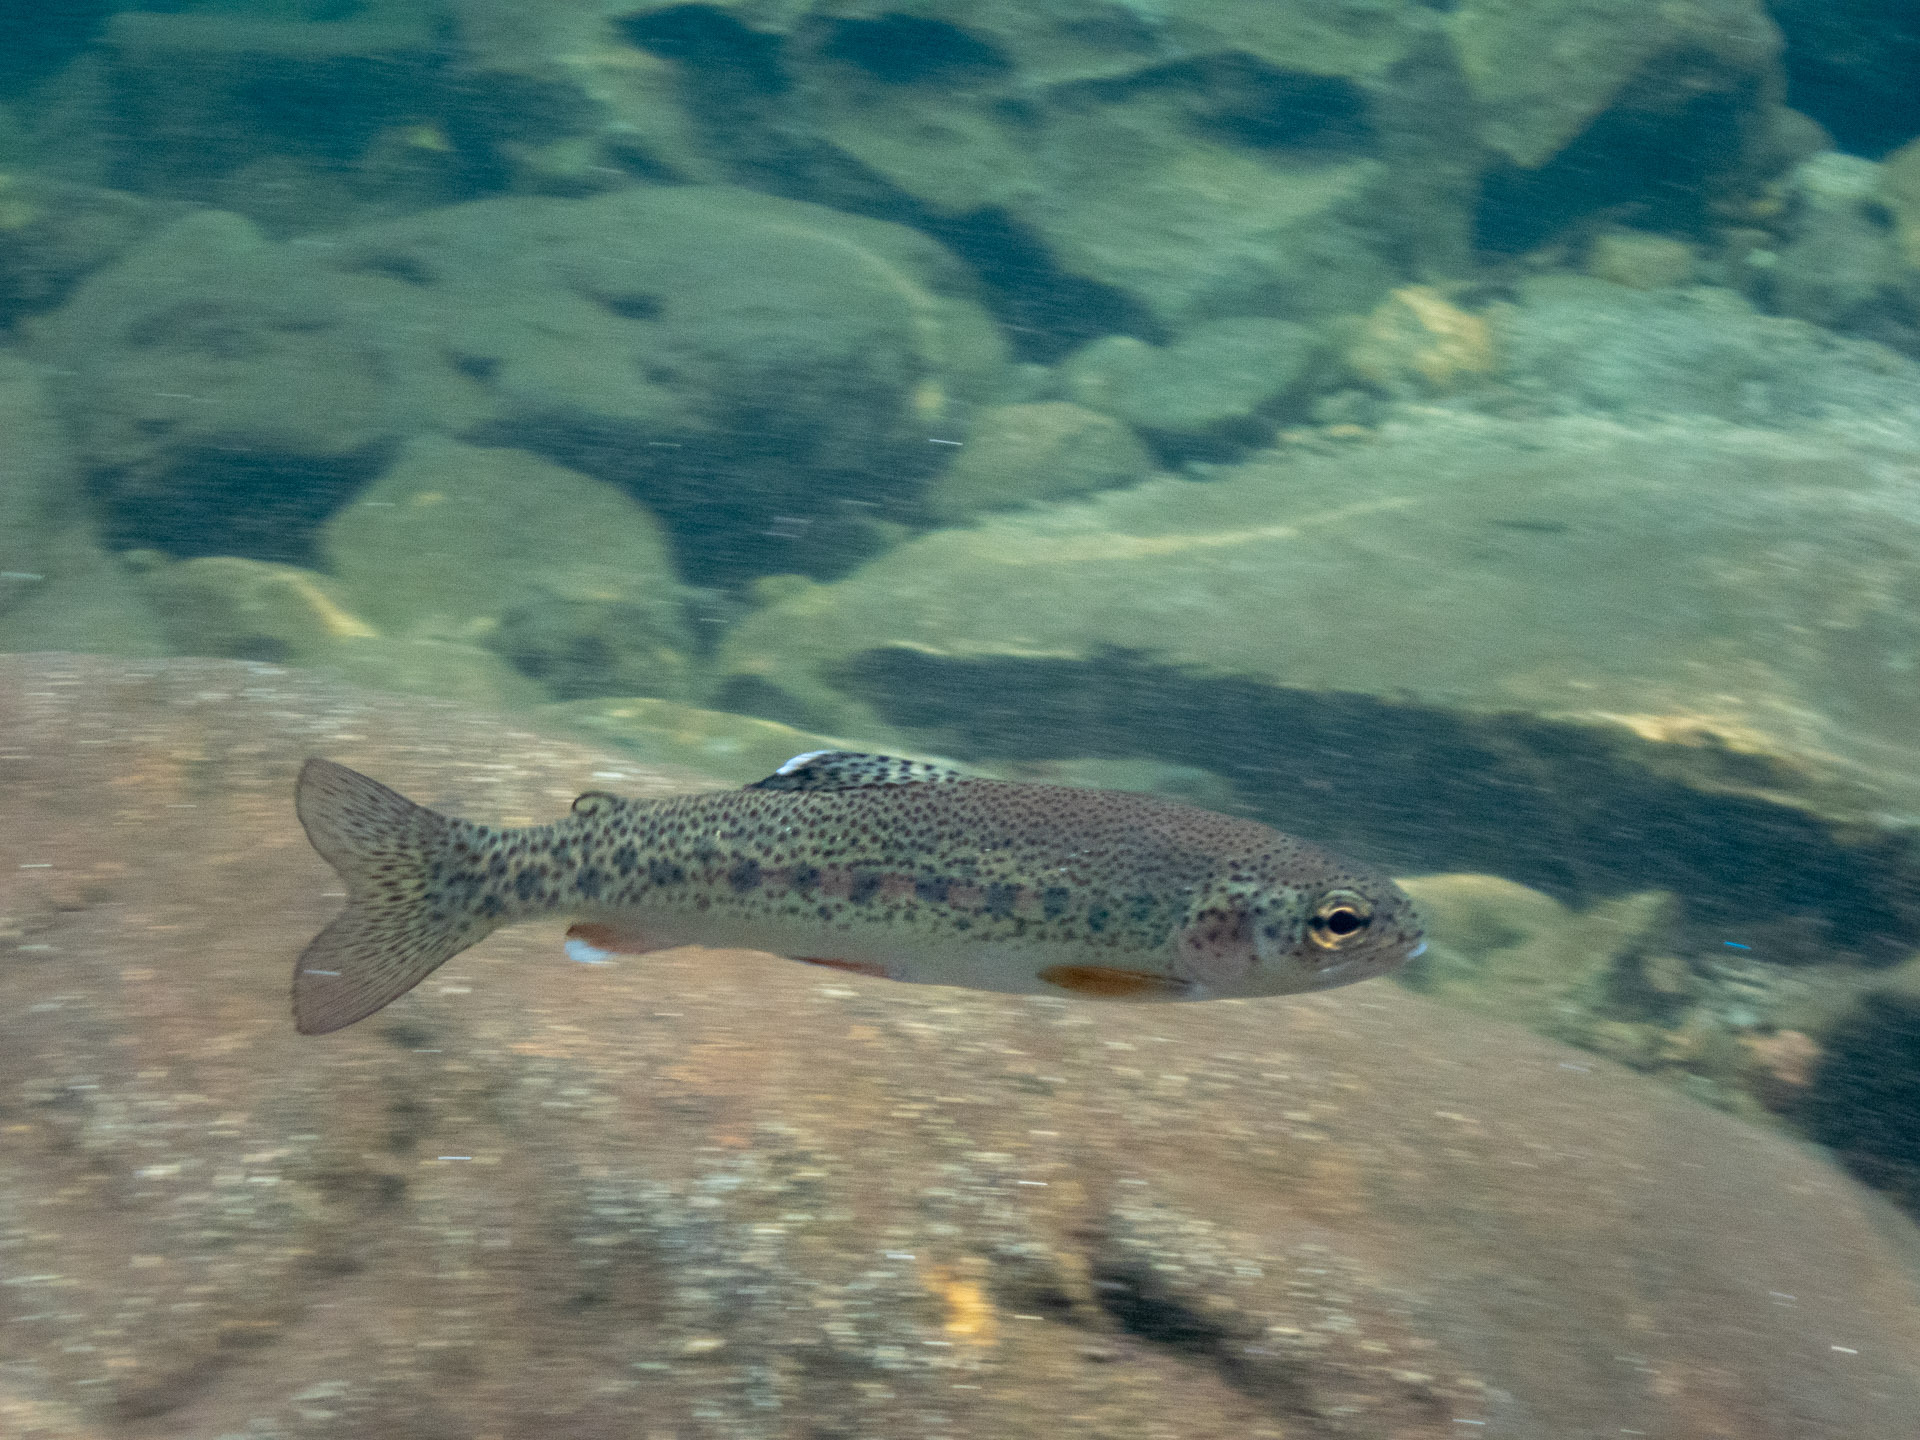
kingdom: Animalia
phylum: Chordata
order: Salmoniformes
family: Salmonidae
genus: Oncorhynchus
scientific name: Oncorhynchus mykiss
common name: Rainbow trout
